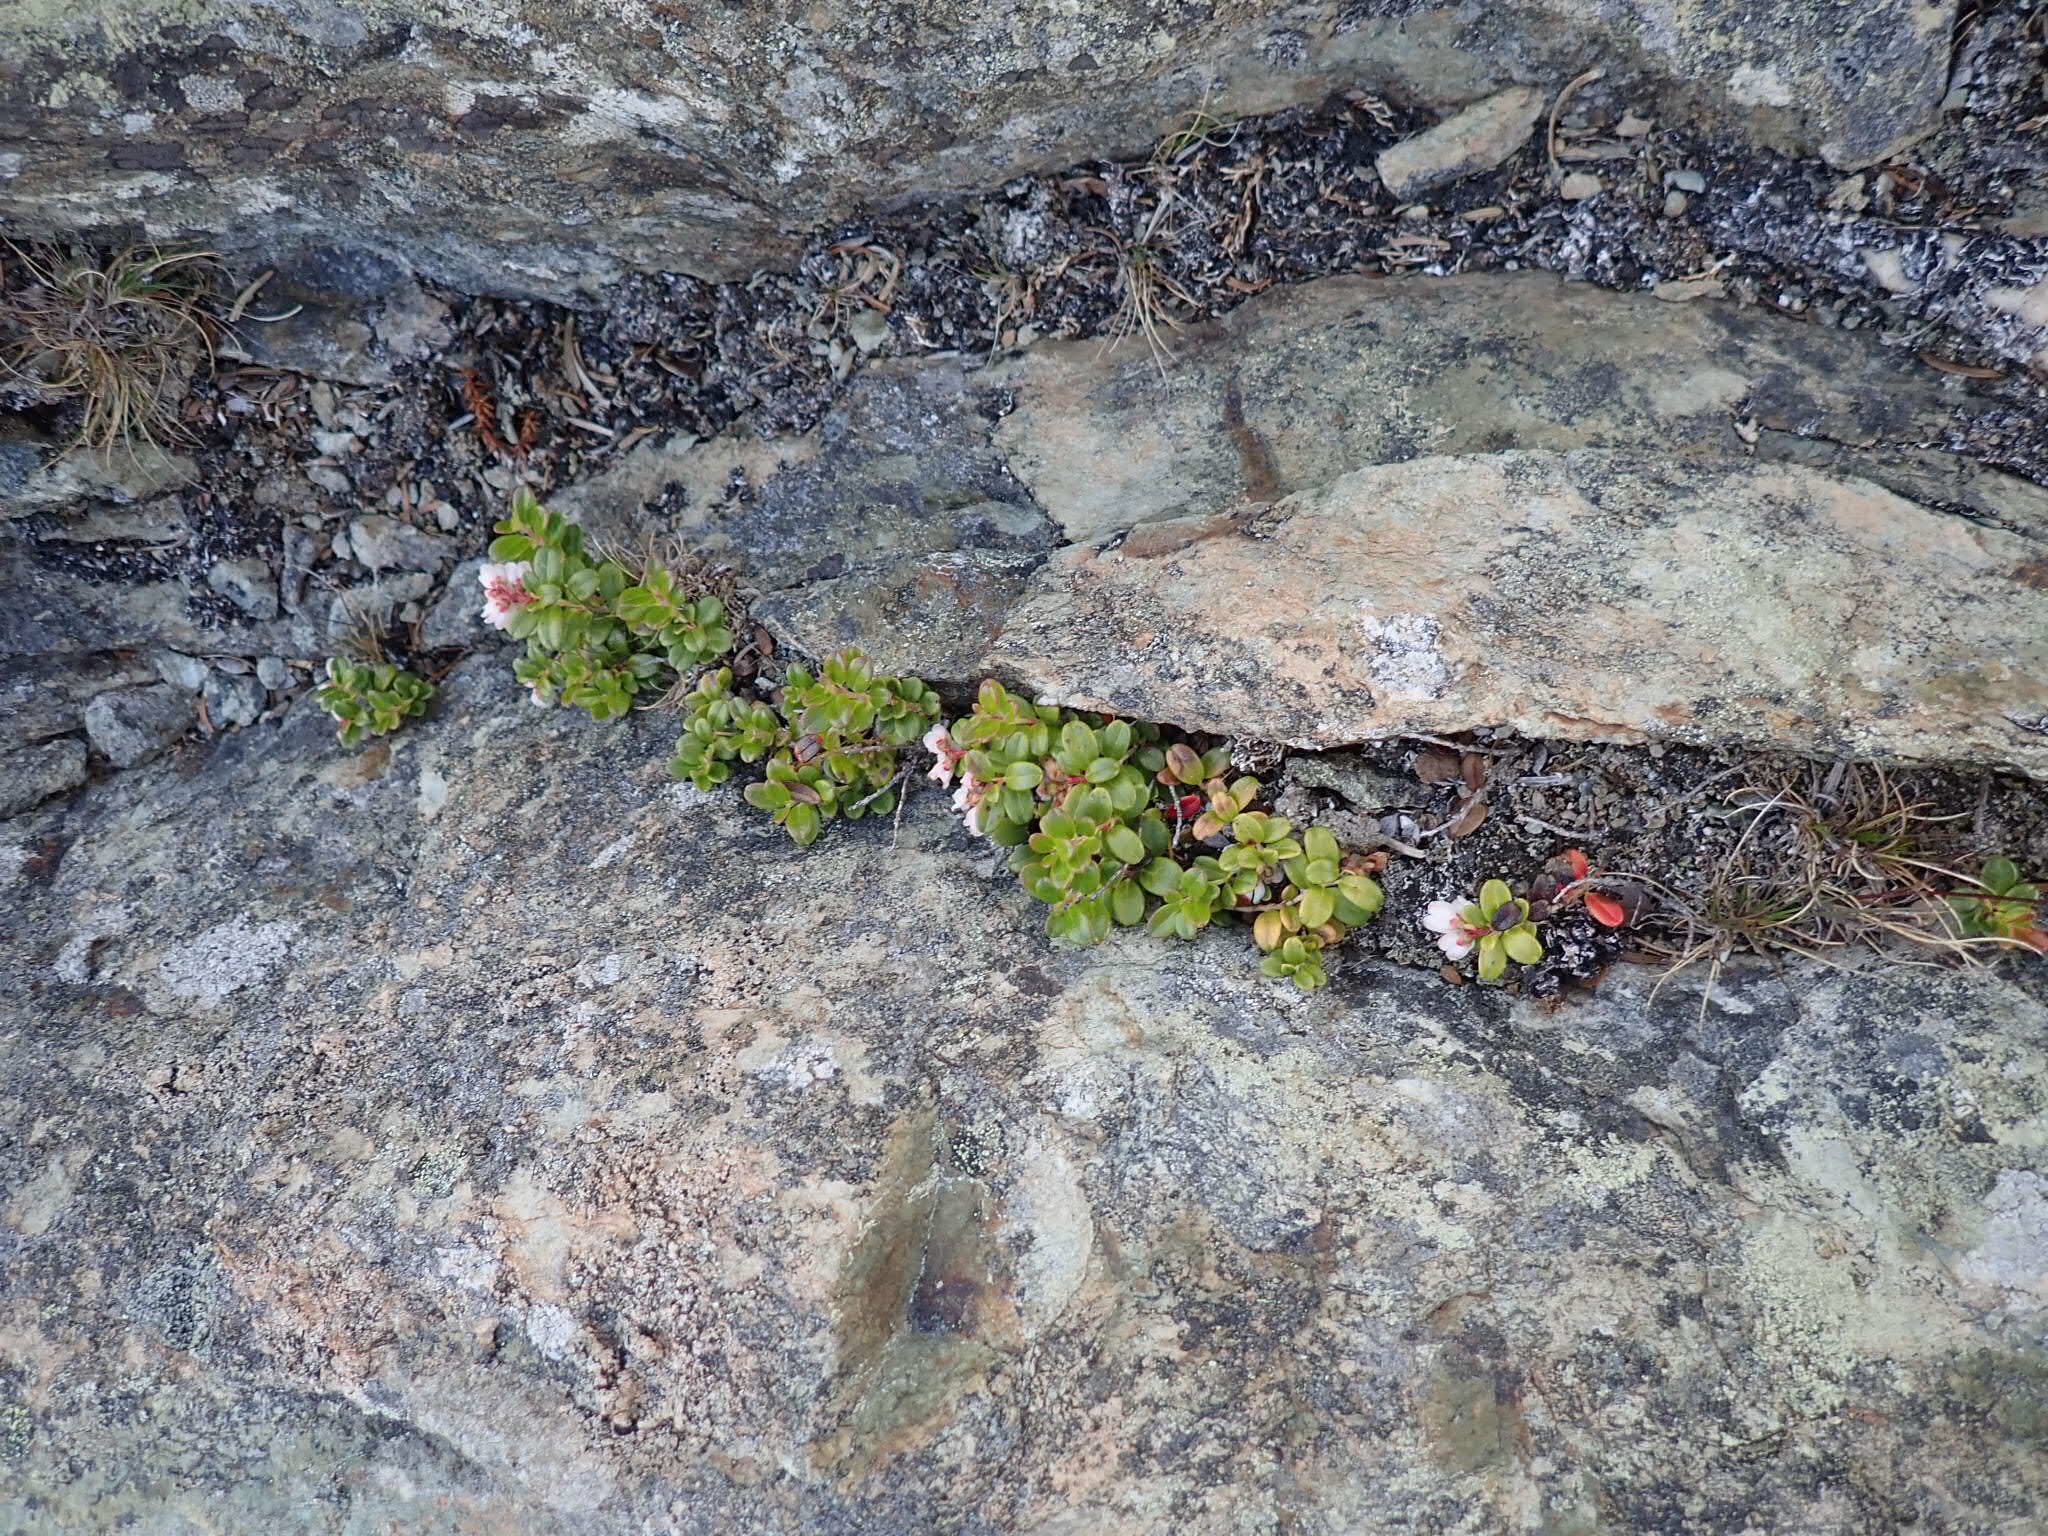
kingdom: Plantae
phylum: Tracheophyta
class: Magnoliopsida
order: Ericales
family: Ericaceae
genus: Vaccinium
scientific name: Vaccinium vitis-idaea
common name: Cowberry
